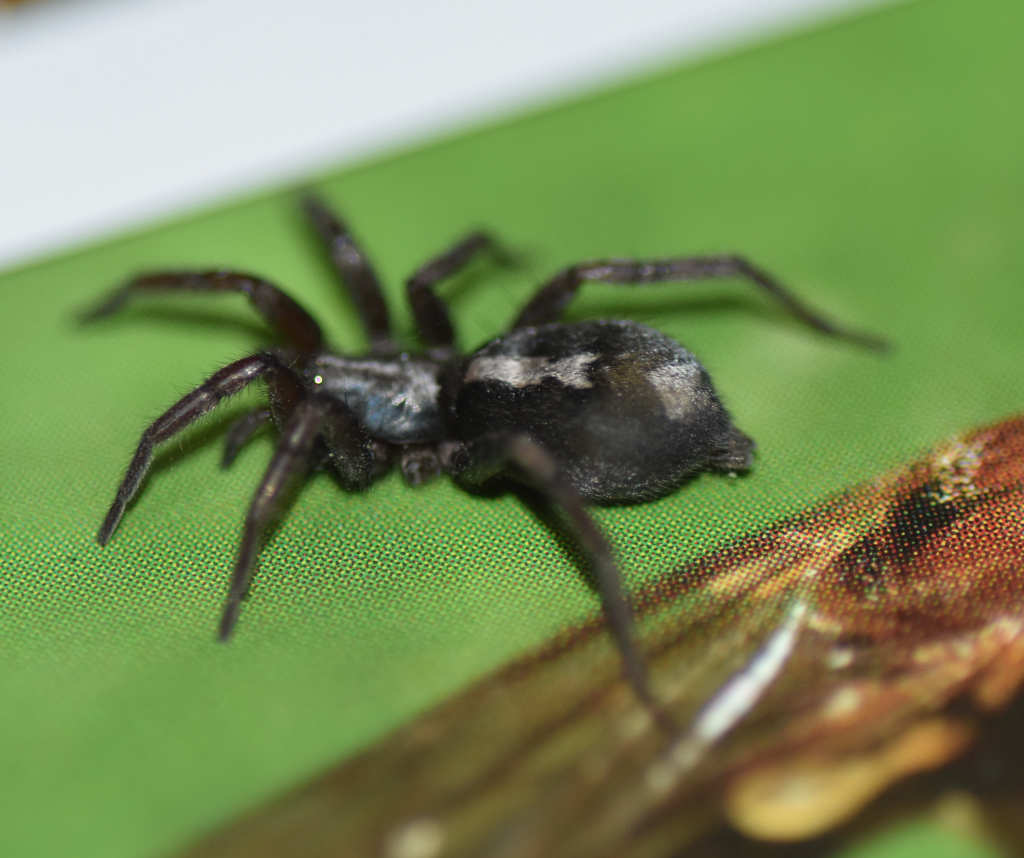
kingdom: Animalia
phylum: Arthropoda
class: Arachnida
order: Araneae
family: Gnaphosidae
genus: Herpyllus
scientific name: Herpyllus ecclesiasticus
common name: Eastern parson spider
